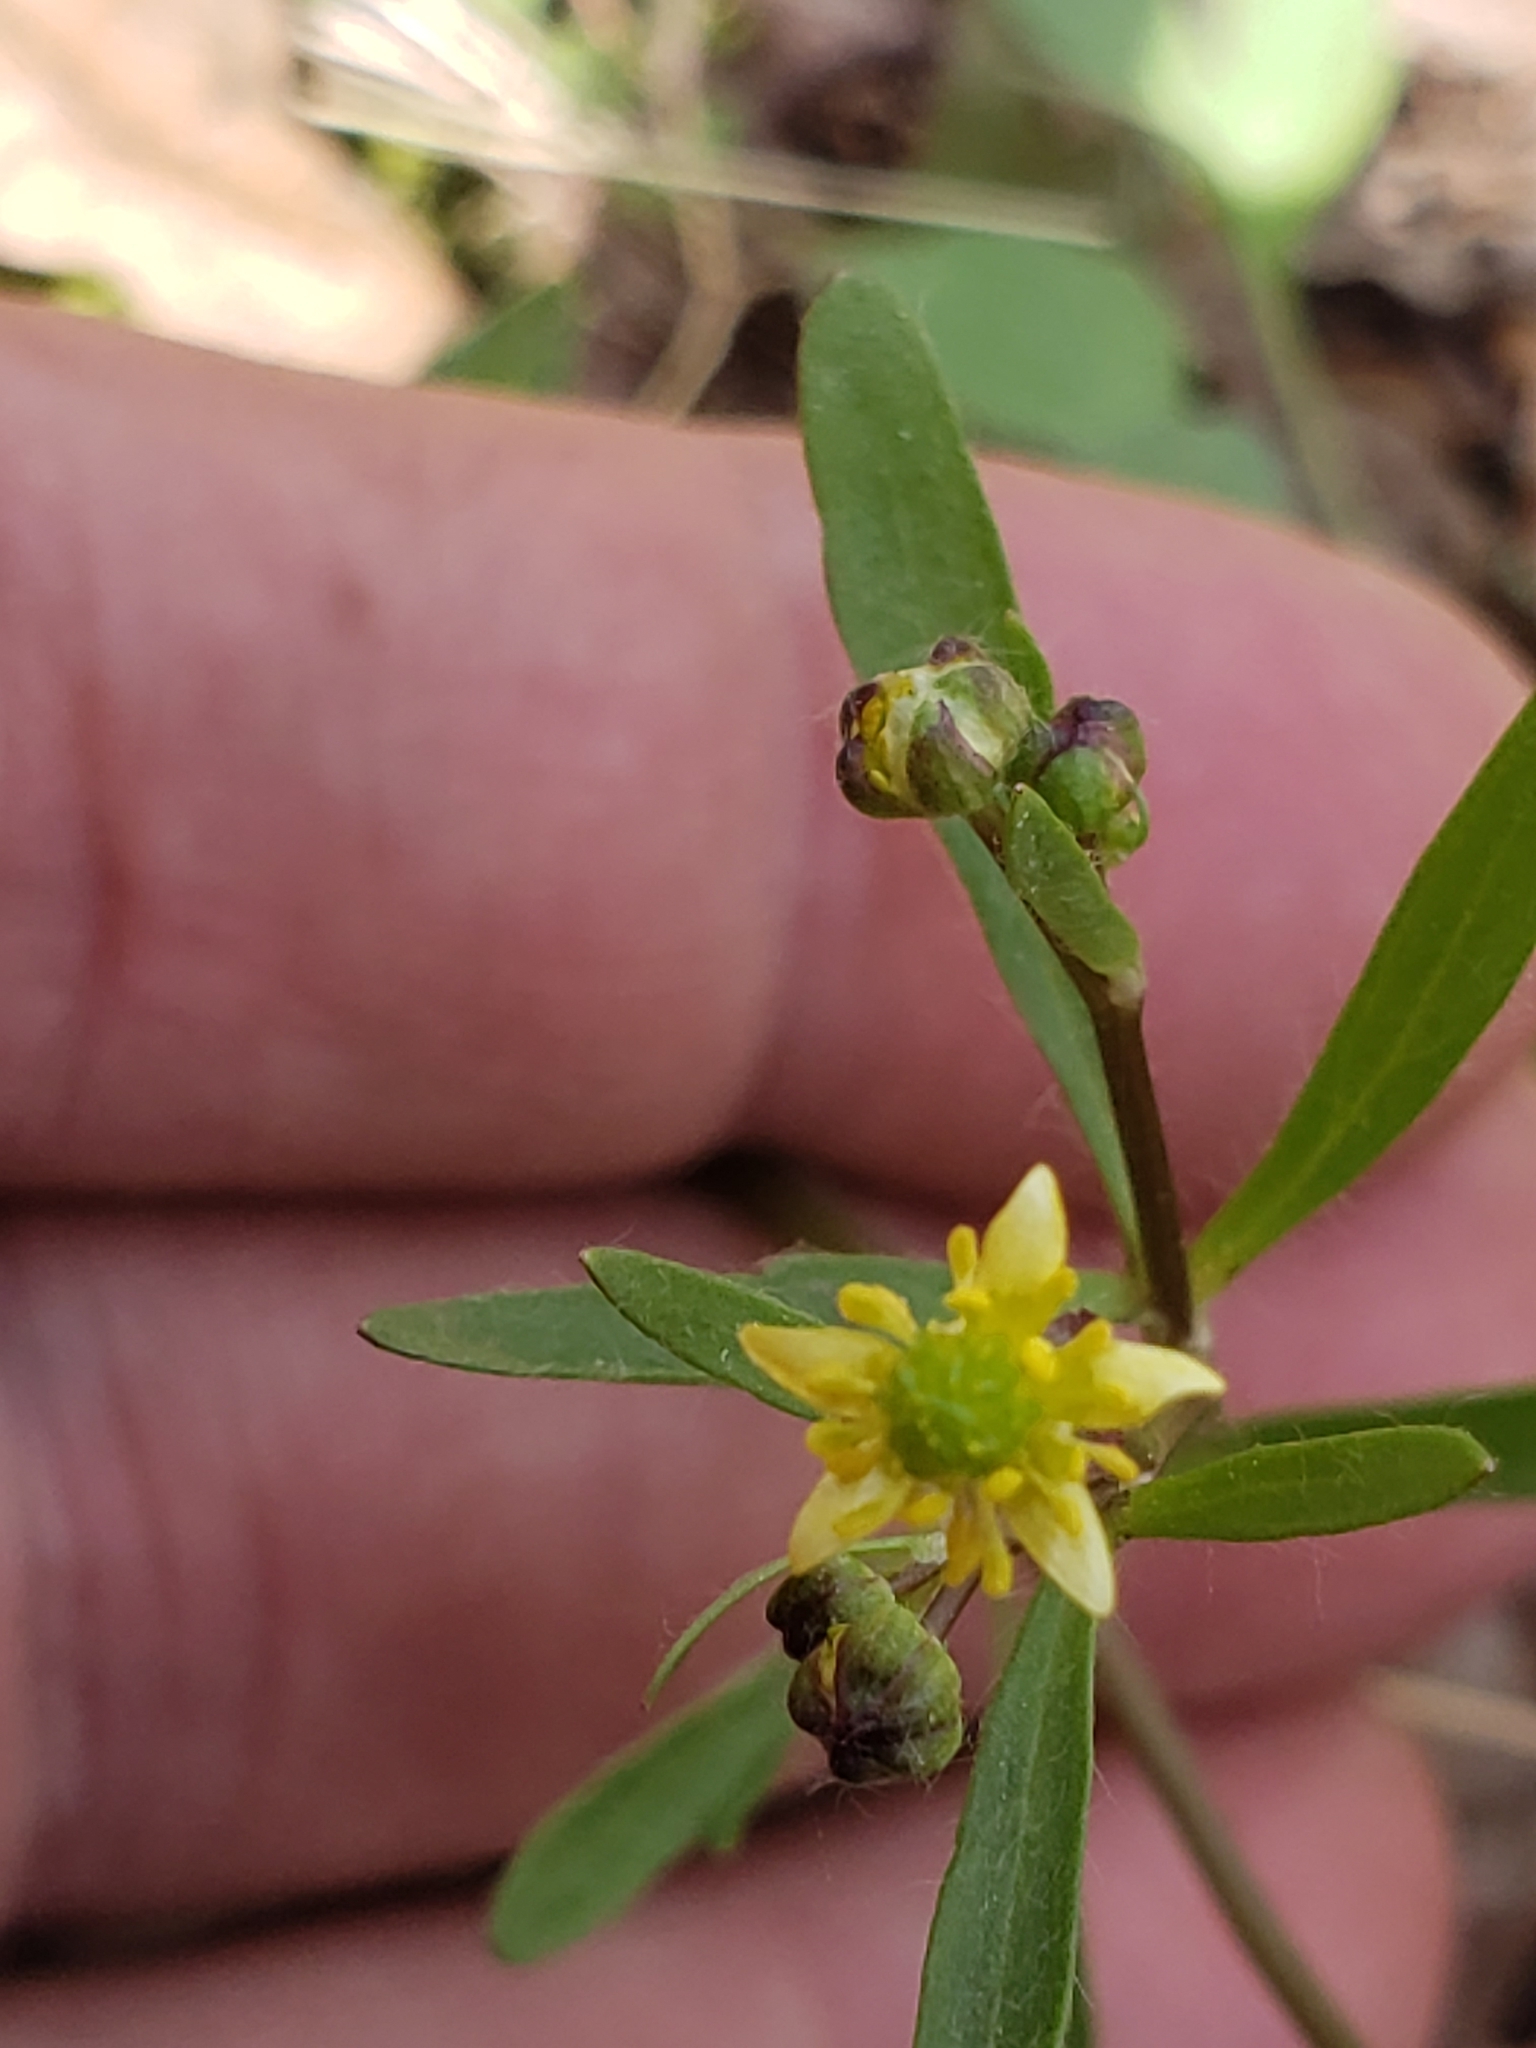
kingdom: Plantae
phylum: Tracheophyta
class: Magnoliopsida
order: Ranunculales
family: Ranunculaceae
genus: Ranunculus
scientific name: Ranunculus abortivus
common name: Early wood buttercup
